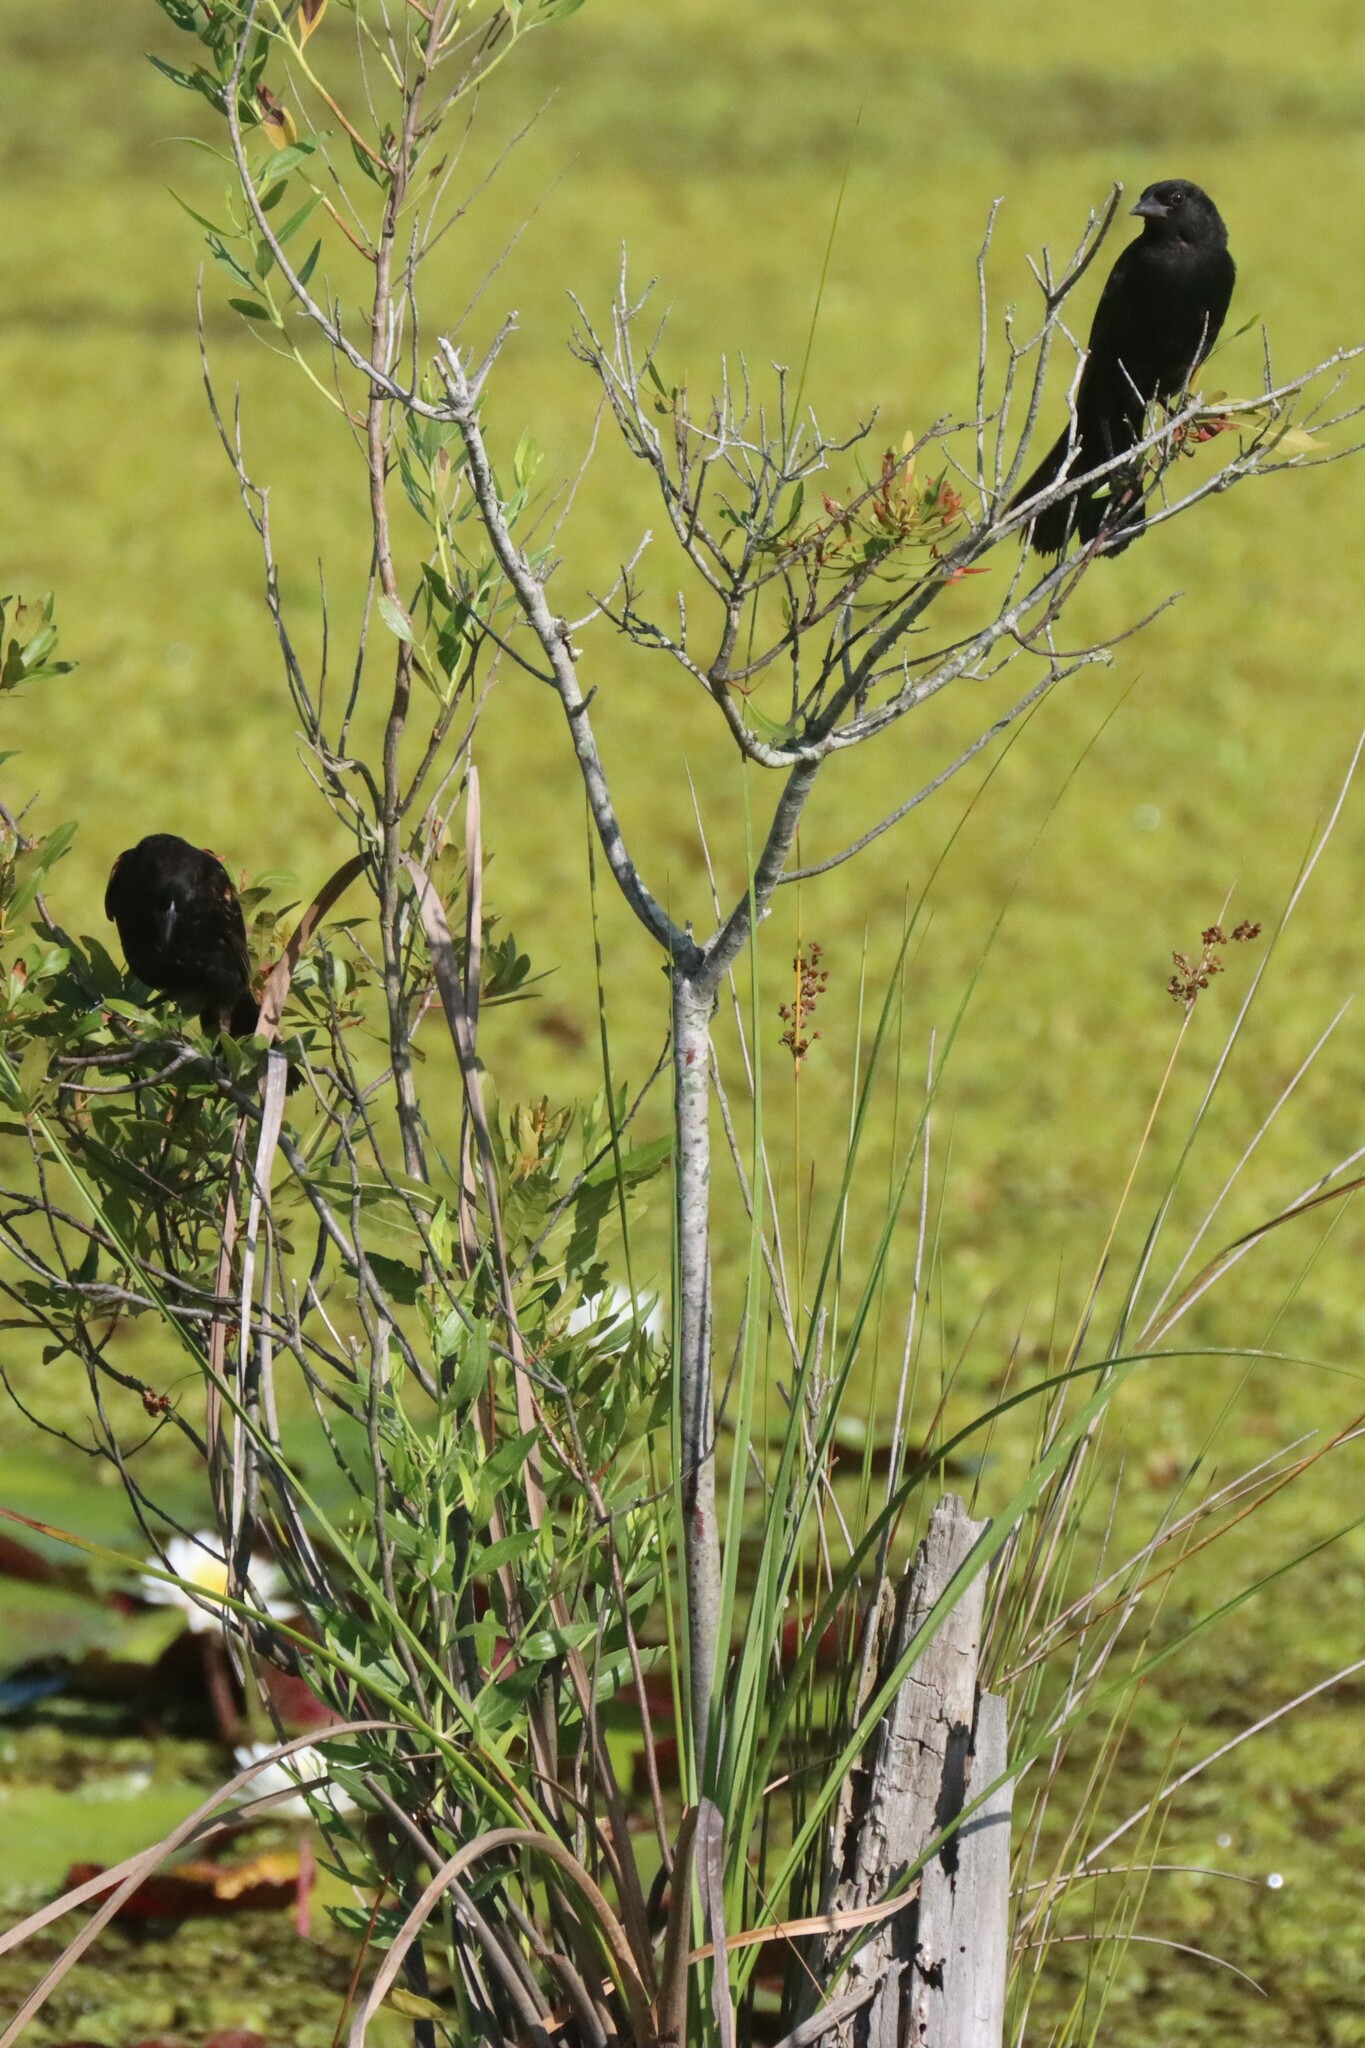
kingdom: Animalia
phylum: Chordata
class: Aves
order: Passeriformes
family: Icteridae
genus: Agelaius
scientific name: Agelaius phoeniceus
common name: Red-winged blackbird
